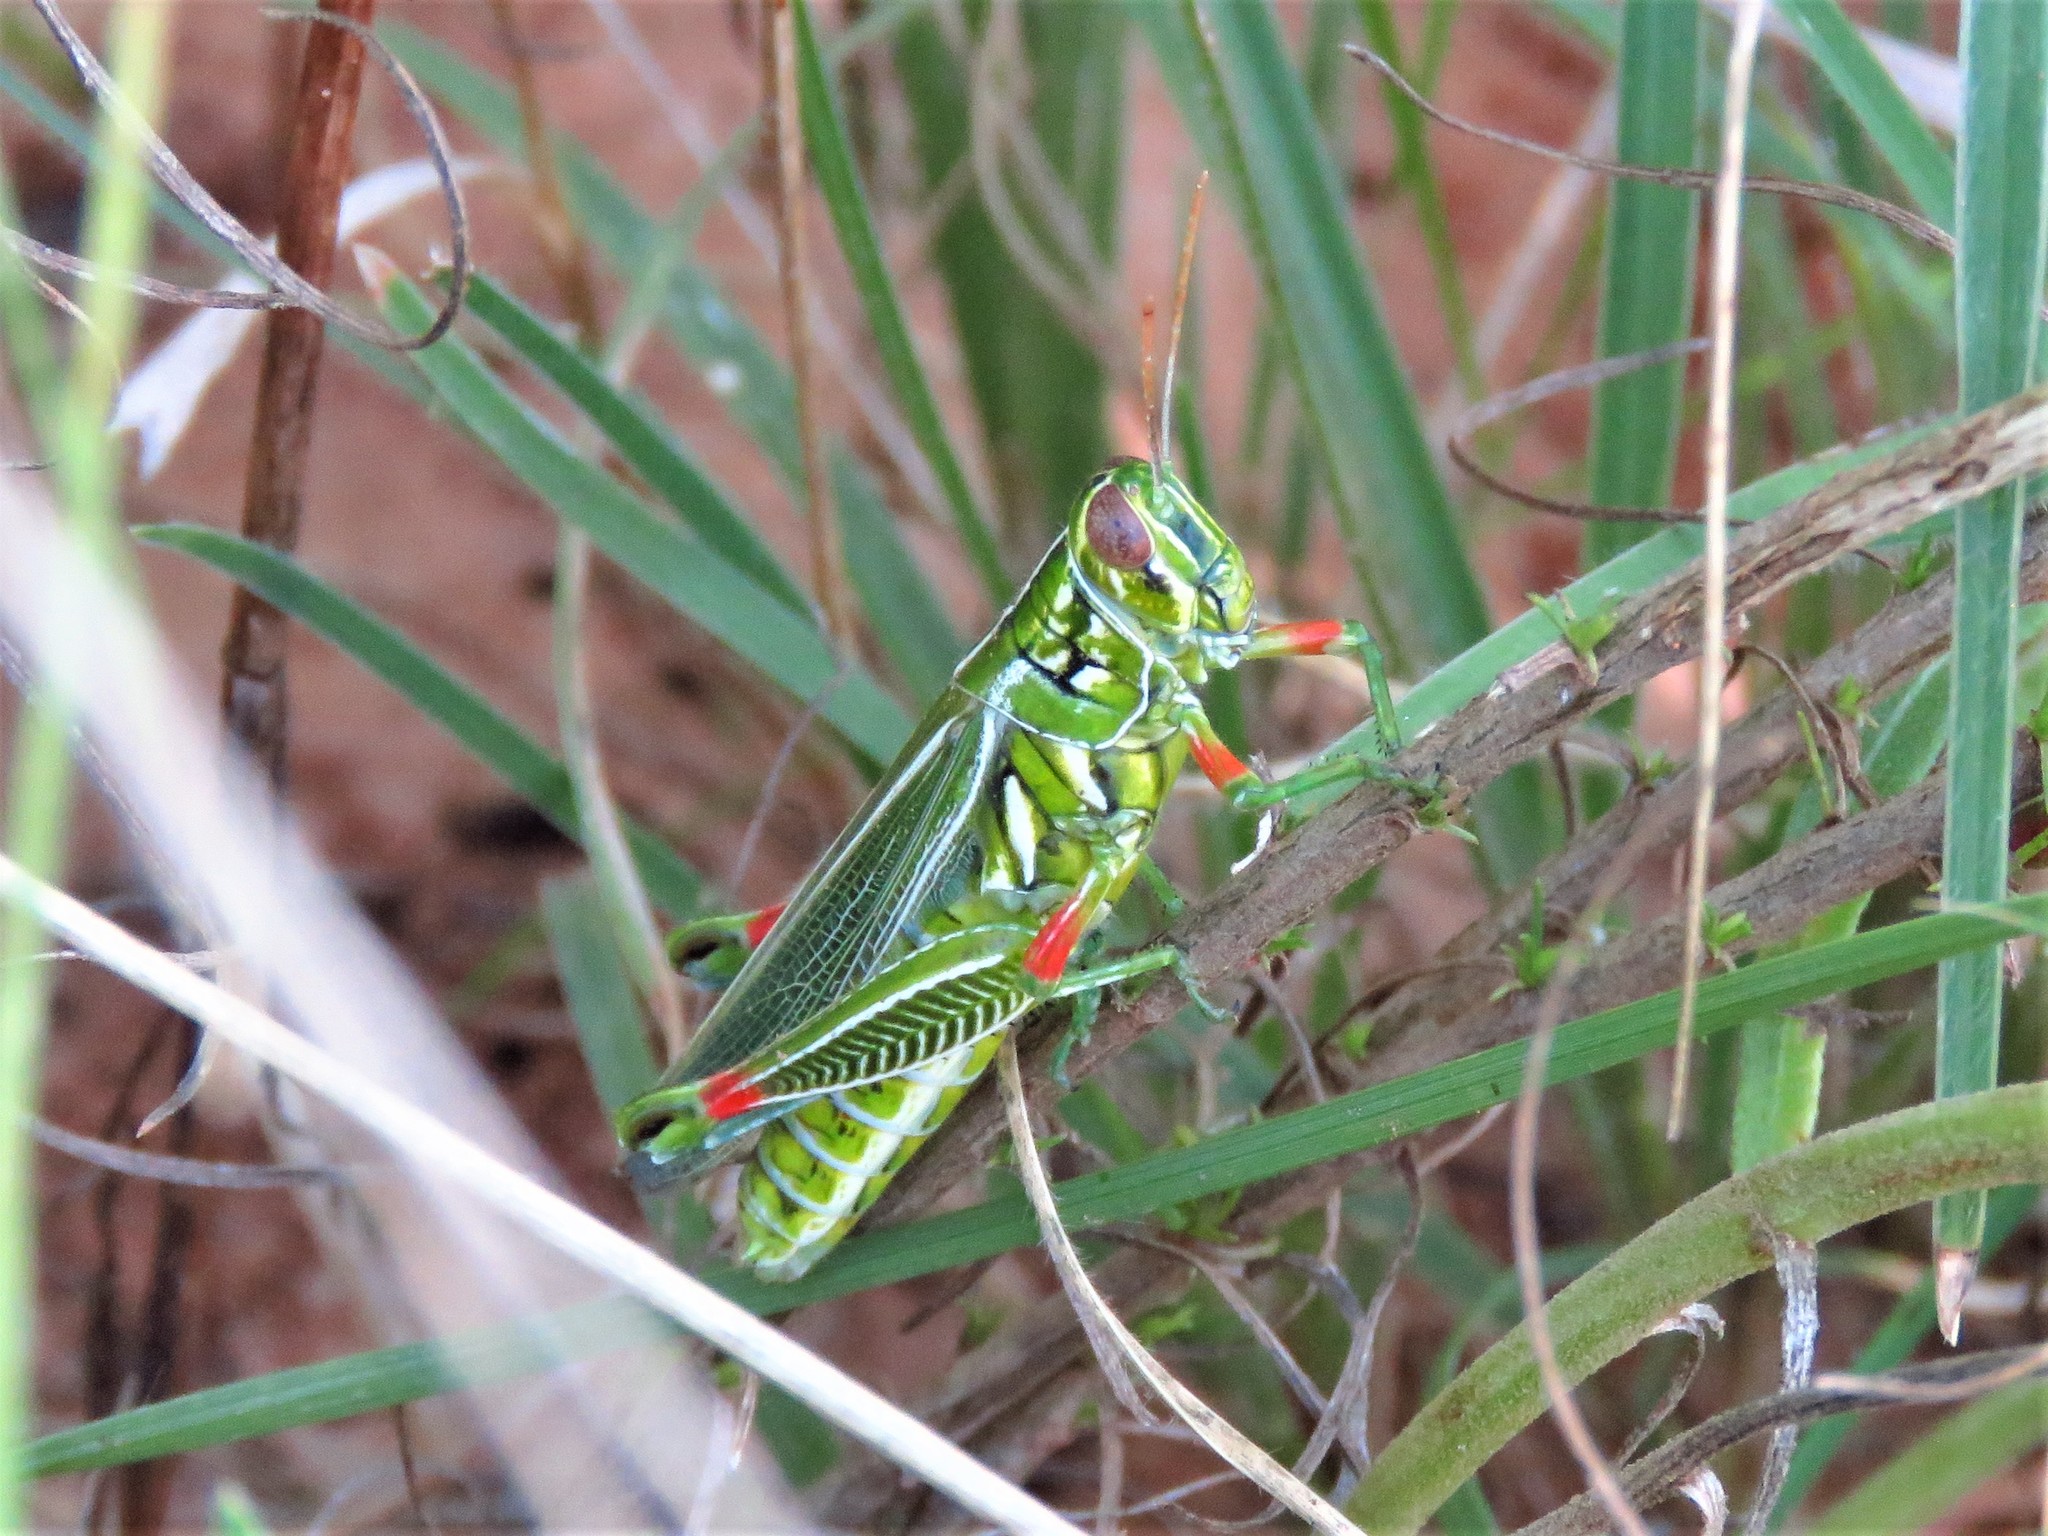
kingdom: Animalia
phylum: Arthropoda
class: Insecta
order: Orthoptera
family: Acrididae
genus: Hesperotettix
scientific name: Hesperotettix viridis
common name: Meadow purple-striped grasshopper
